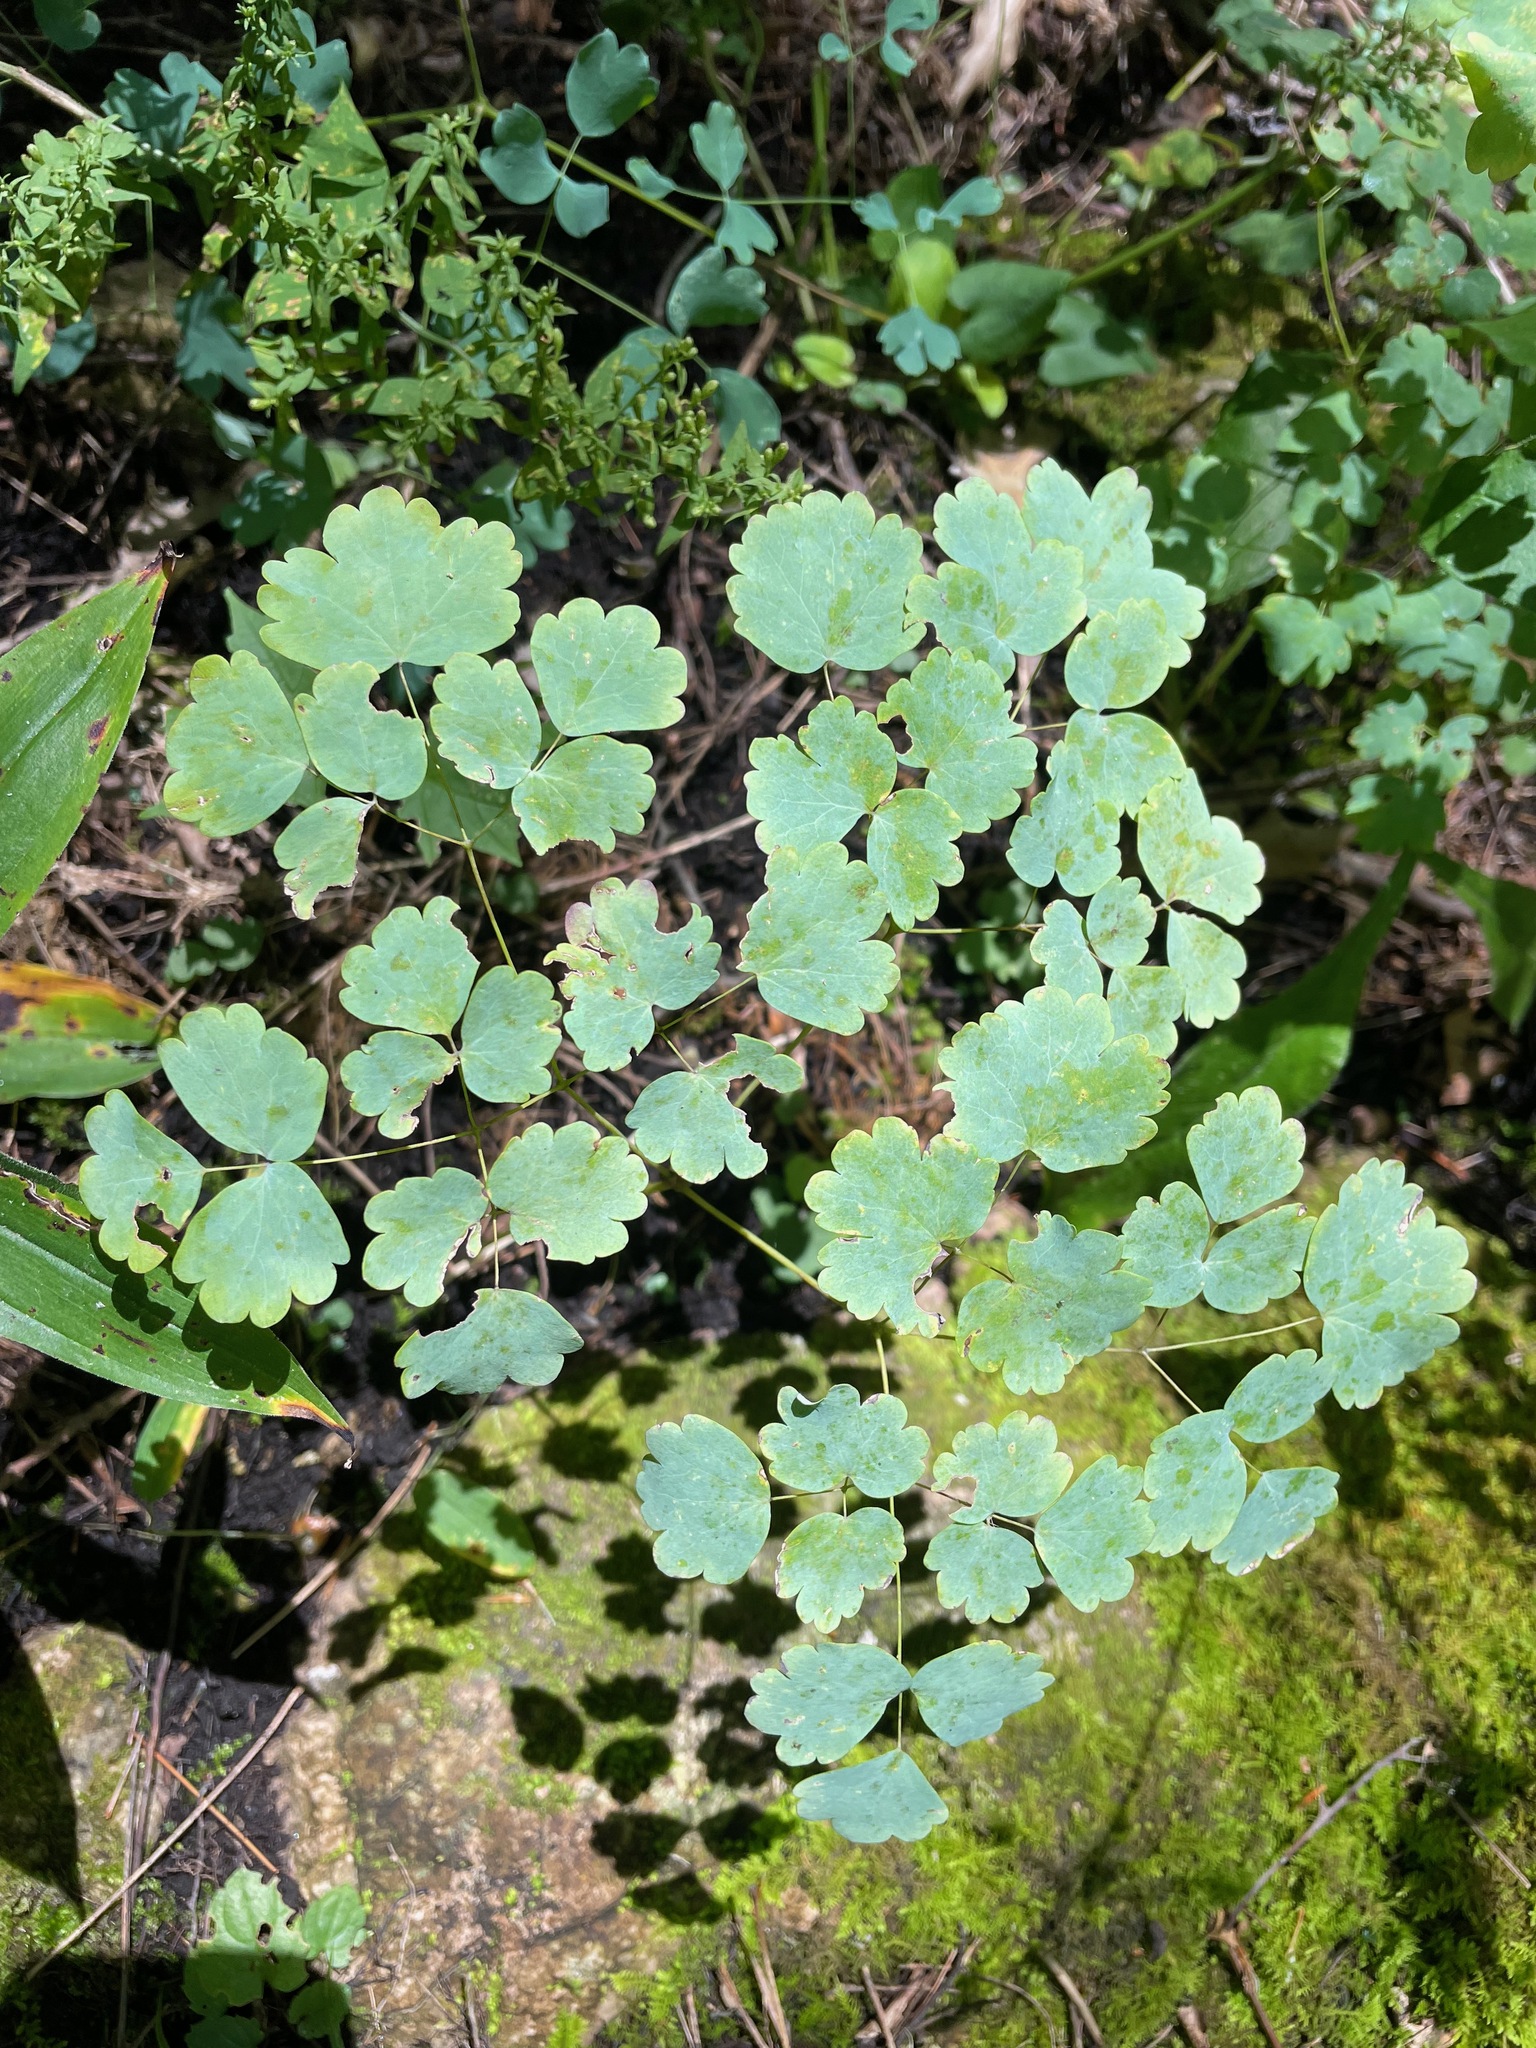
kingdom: Plantae
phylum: Tracheophyta
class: Magnoliopsida
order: Ranunculales
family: Ranunculaceae
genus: Thalictrum
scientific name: Thalictrum dioicum
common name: Early meadow-rue
